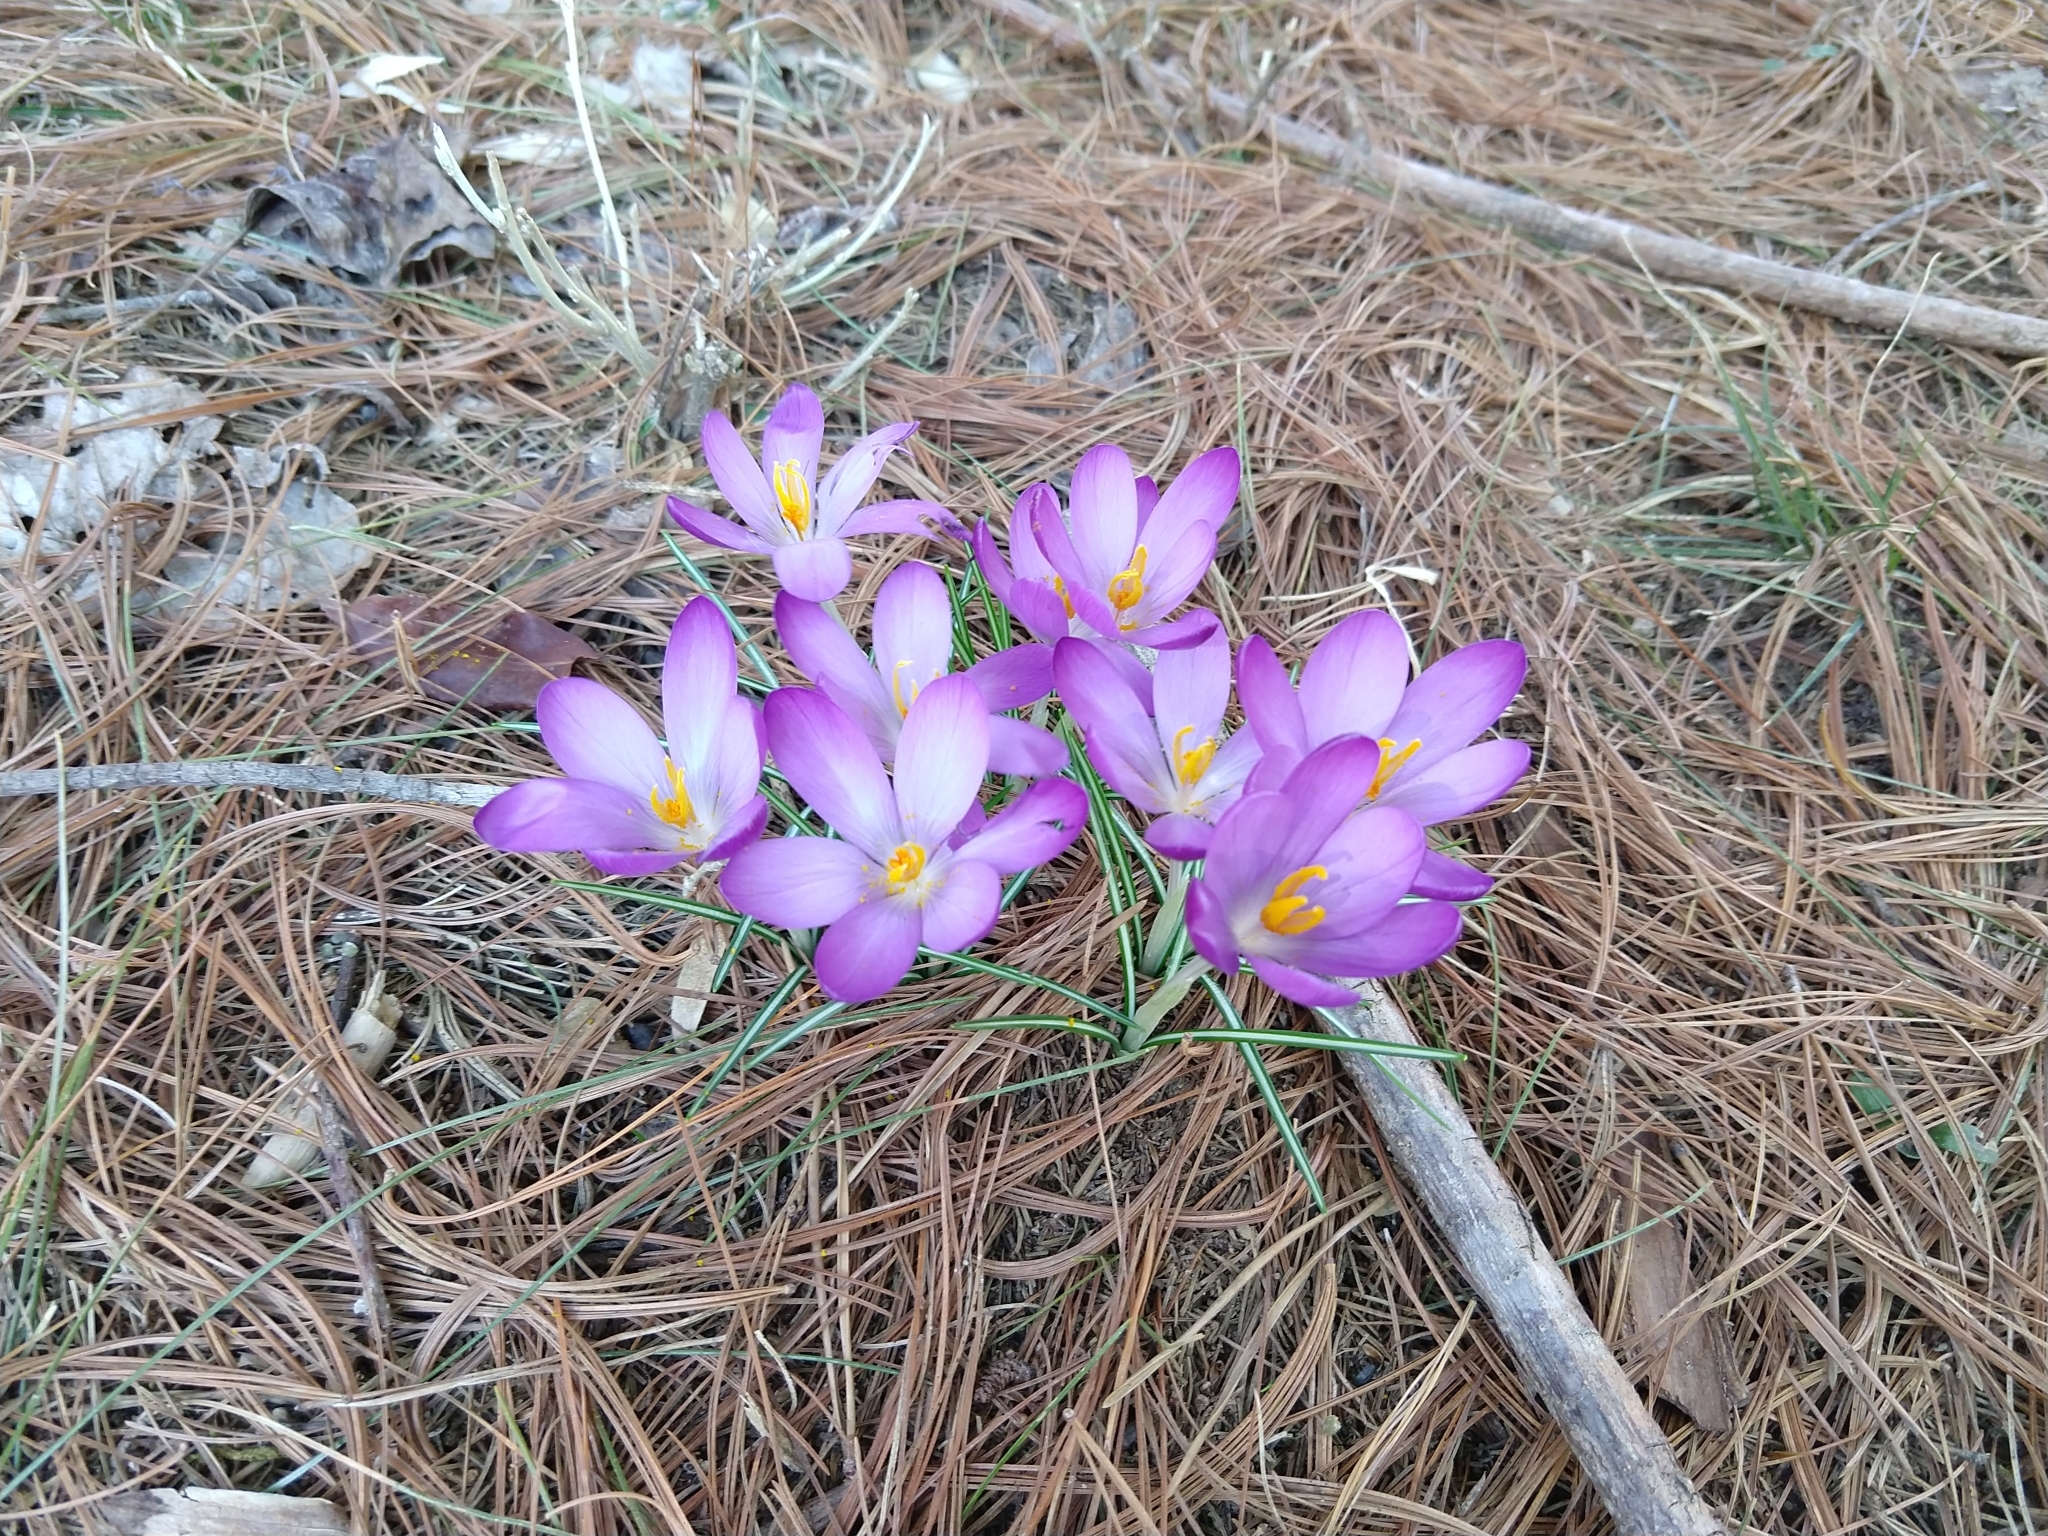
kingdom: Plantae
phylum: Tracheophyta
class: Liliopsida
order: Asparagales
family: Iridaceae
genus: Crocus
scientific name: Crocus tommasinianus
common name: Early crocus
